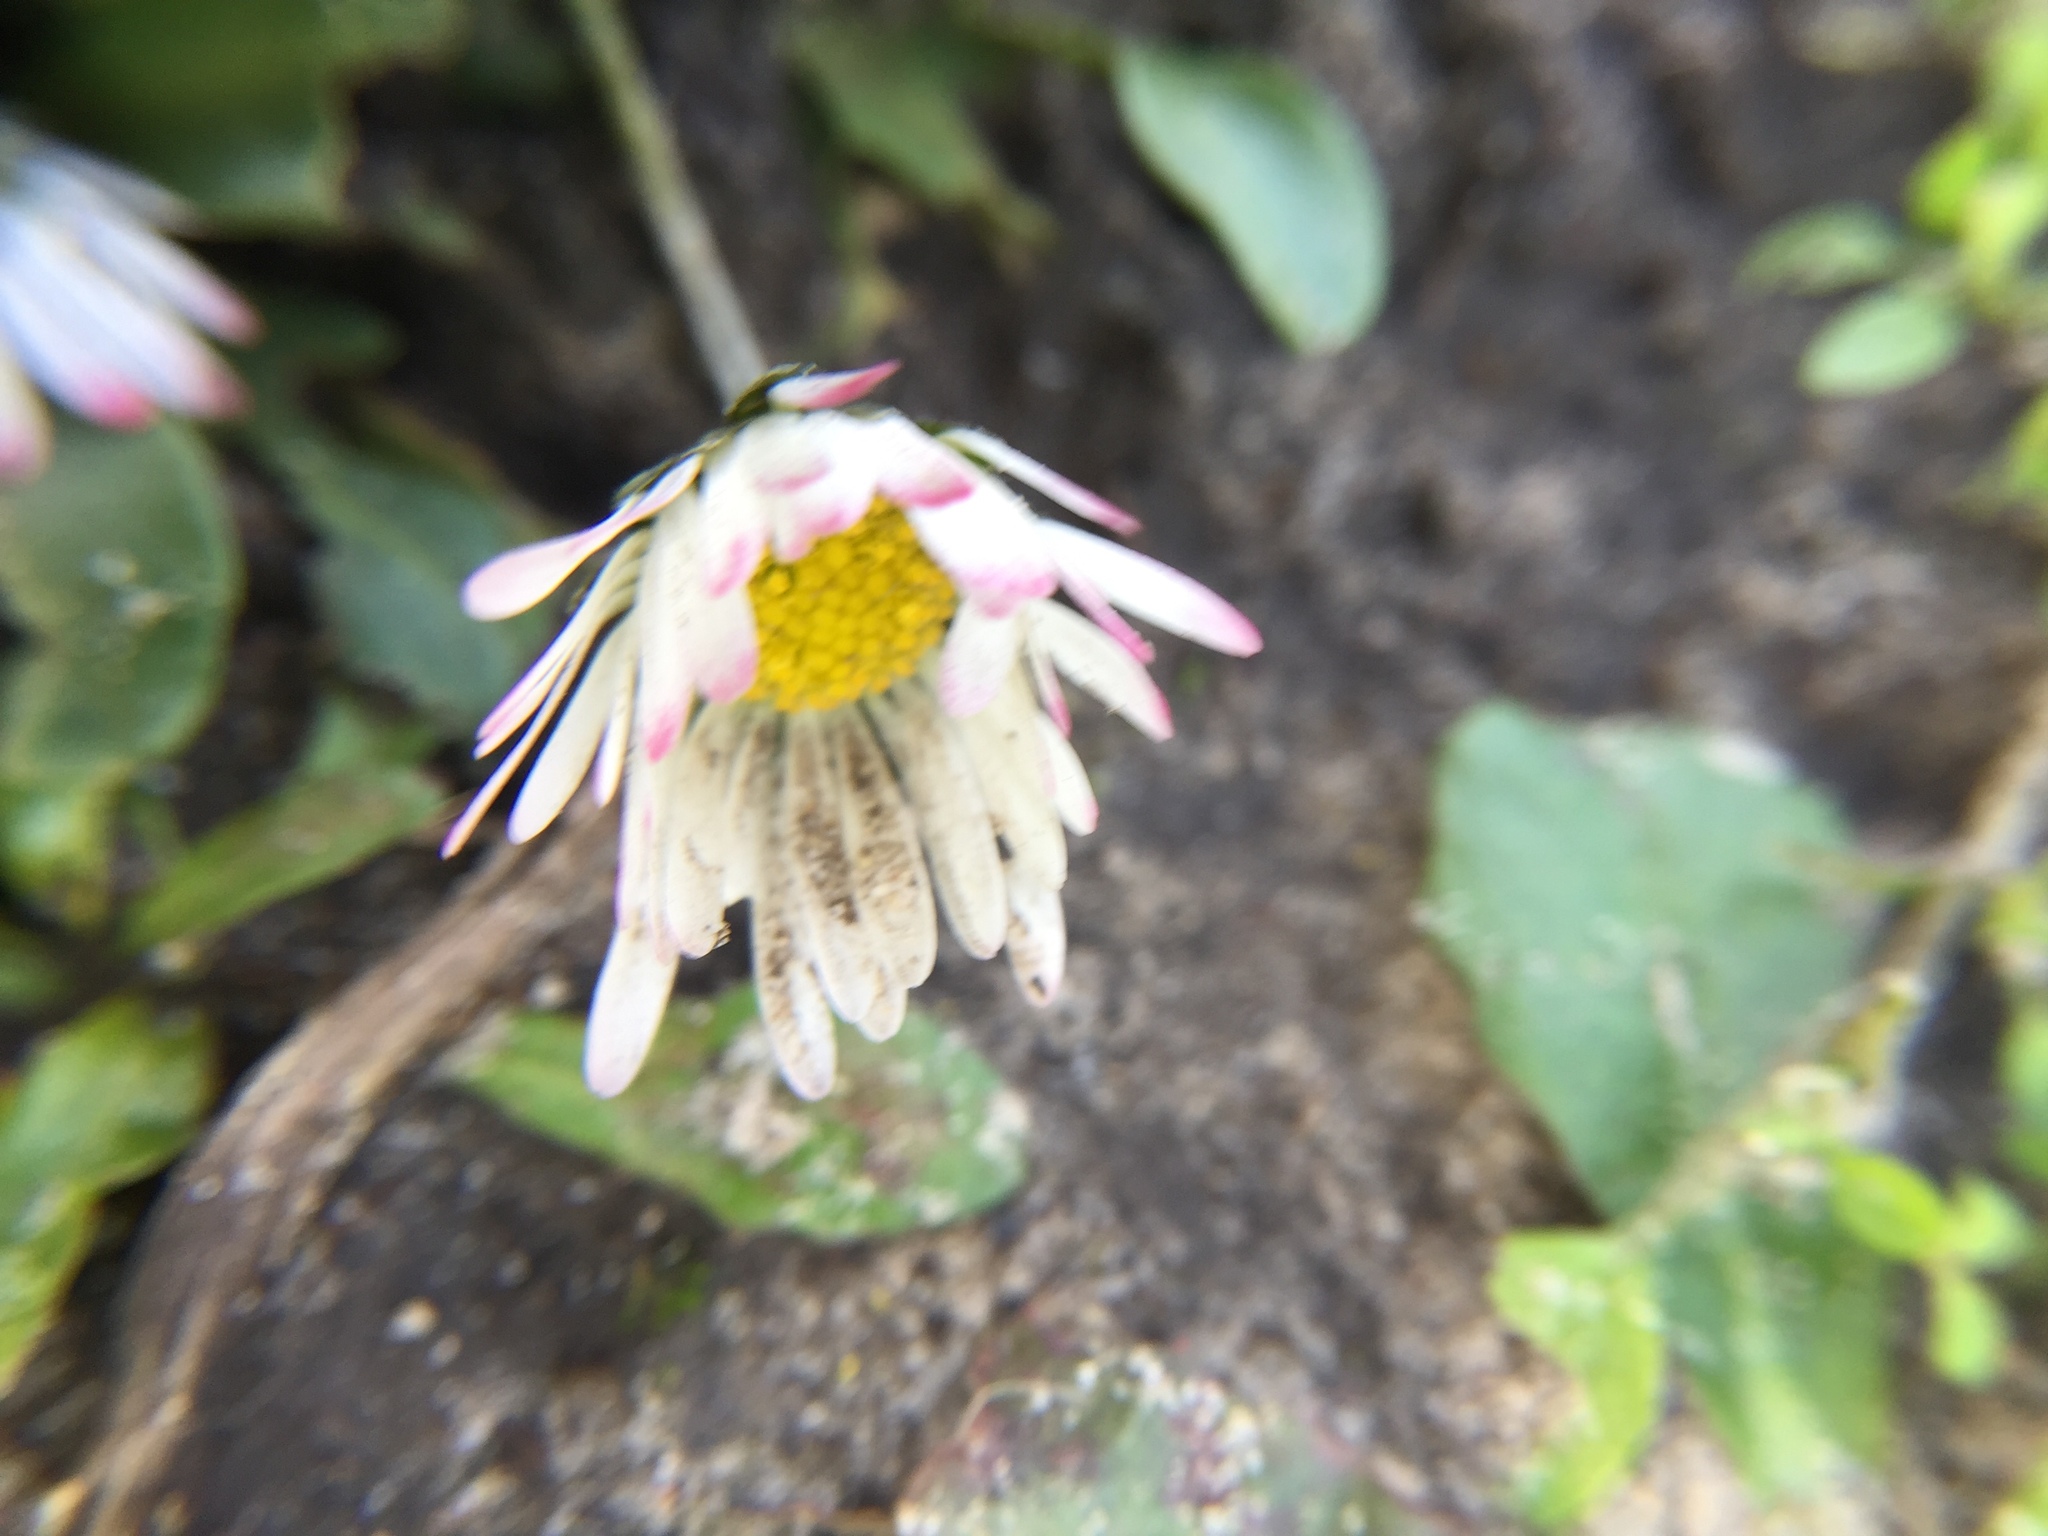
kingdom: Plantae
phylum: Tracheophyta
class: Magnoliopsida
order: Asterales
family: Asteraceae
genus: Bellis
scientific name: Bellis perennis
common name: Lawndaisy
